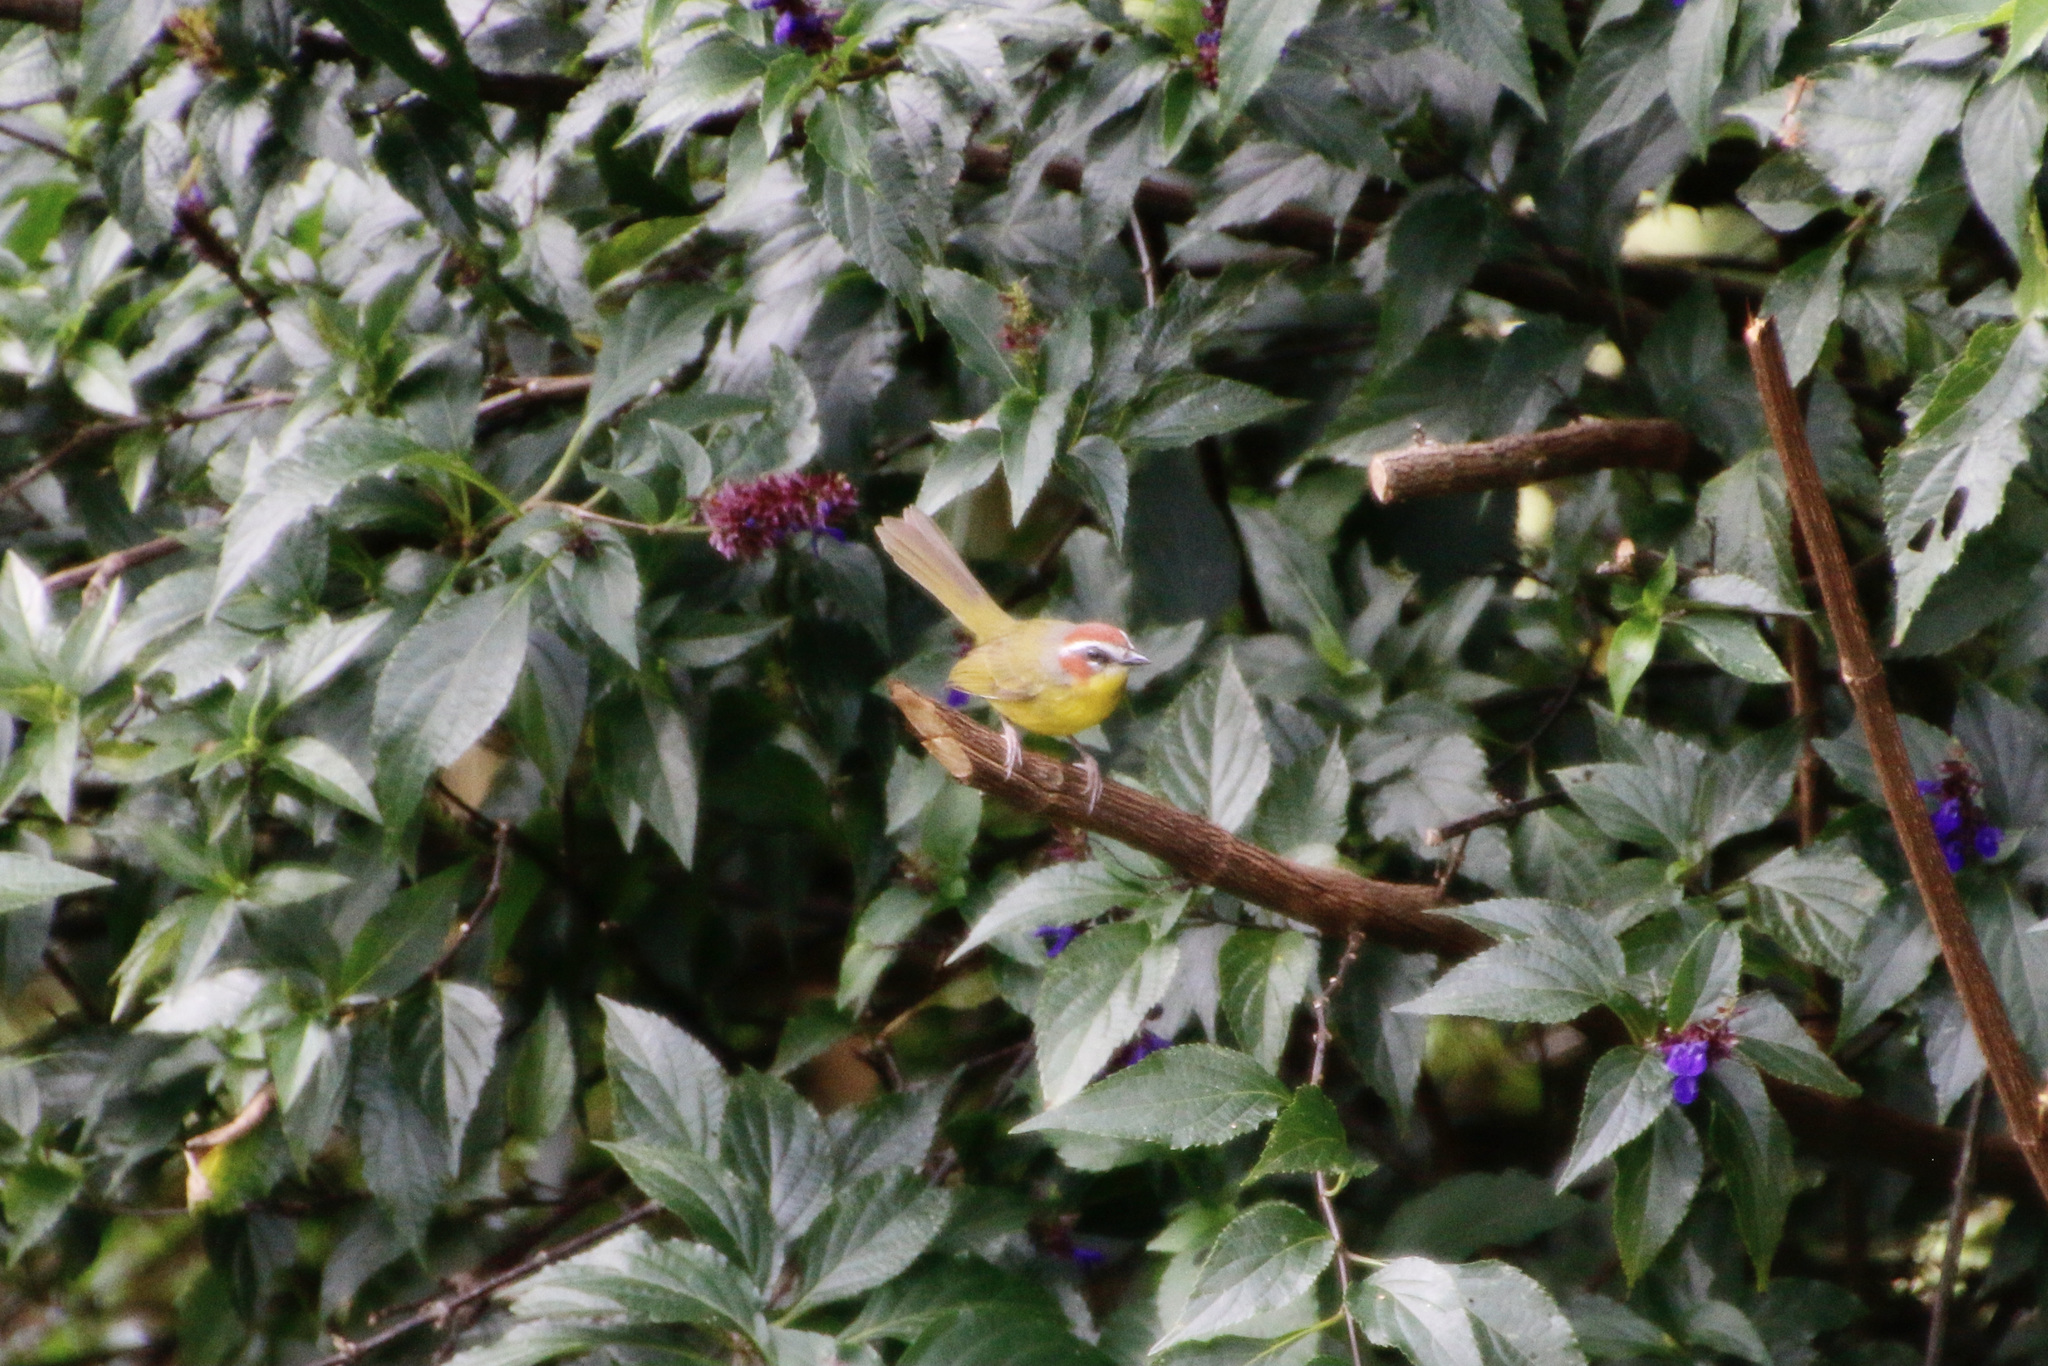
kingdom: Animalia
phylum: Chordata
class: Aves
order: Passeriformes
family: Parulidae
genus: Basileuterus
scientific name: Basileuterus rufifrons
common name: Rufous-capped warbler
